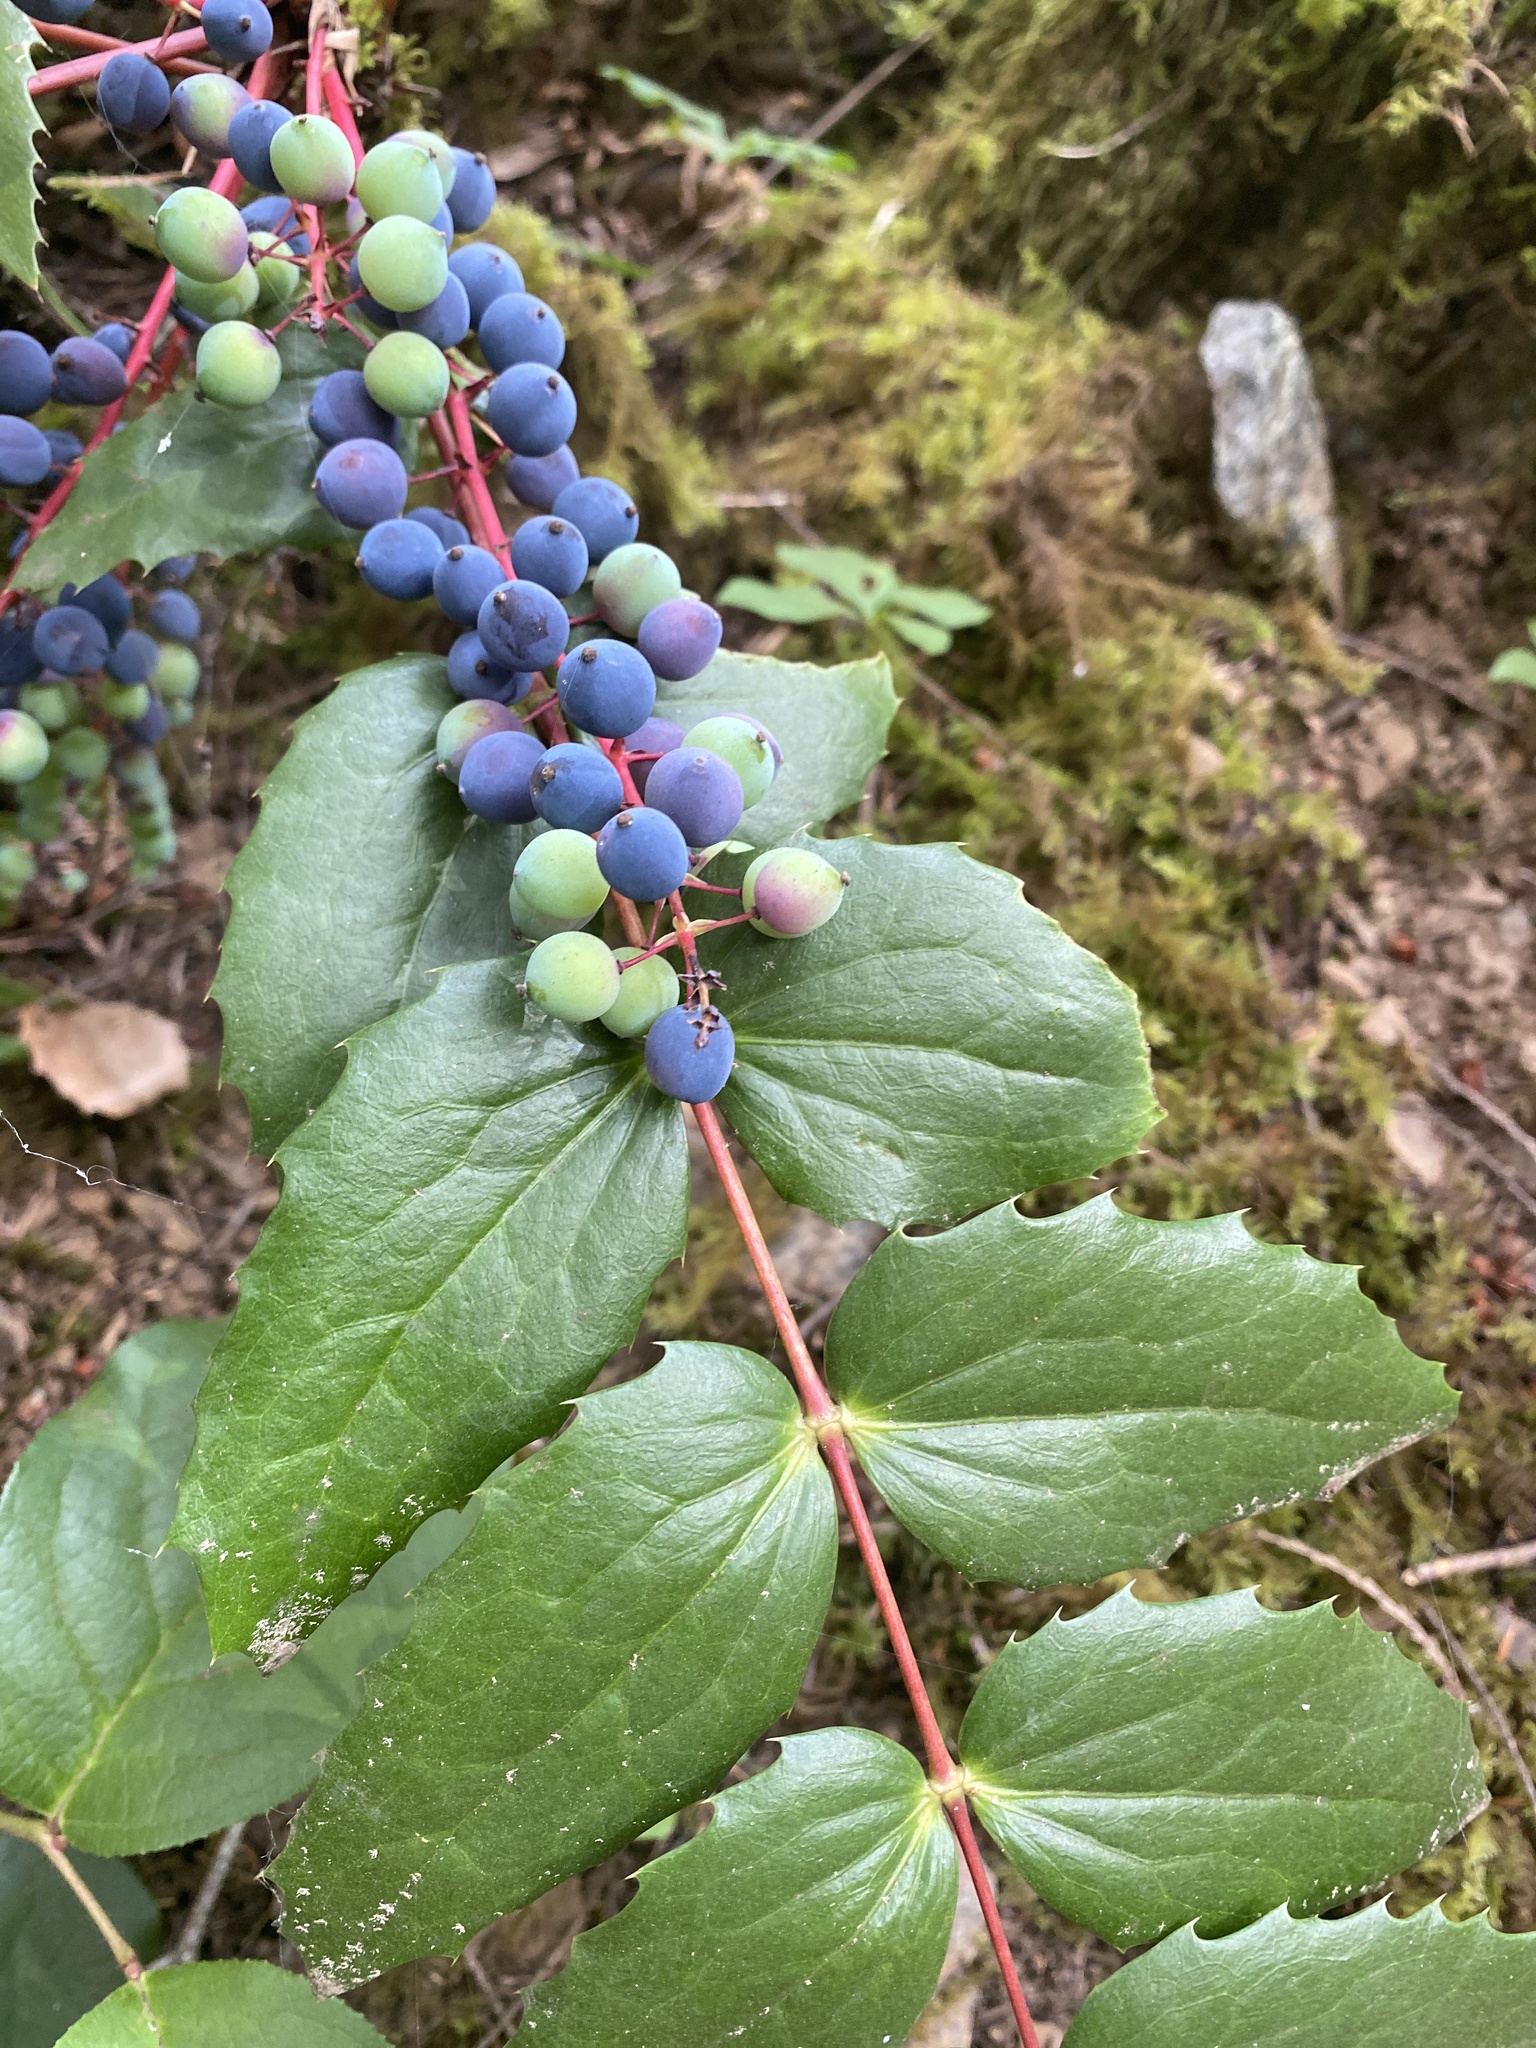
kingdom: Plantae
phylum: Tracheophyta
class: Magnoliopsida
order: Ranunculales
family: Berberidaceae
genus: Mahonia
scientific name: Mahonia nervosa
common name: Cascade oregon-grape
